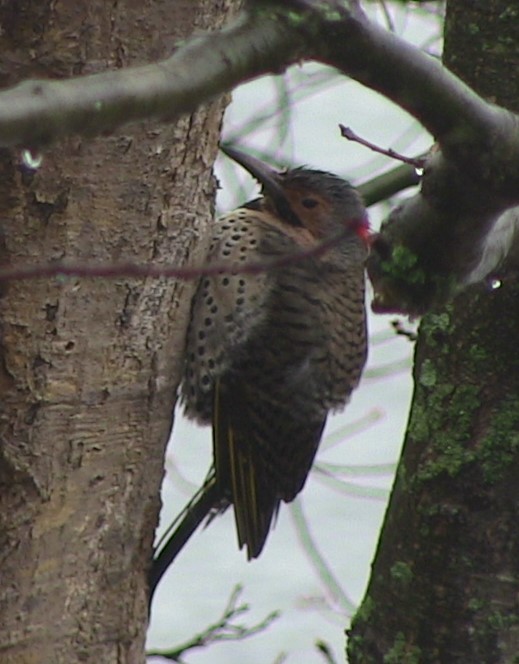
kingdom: Animalia
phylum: Chordata
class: Aves
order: Piciformes
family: Picidae
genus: Colaptes
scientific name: Colaptes auratus
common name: Northern flicker
